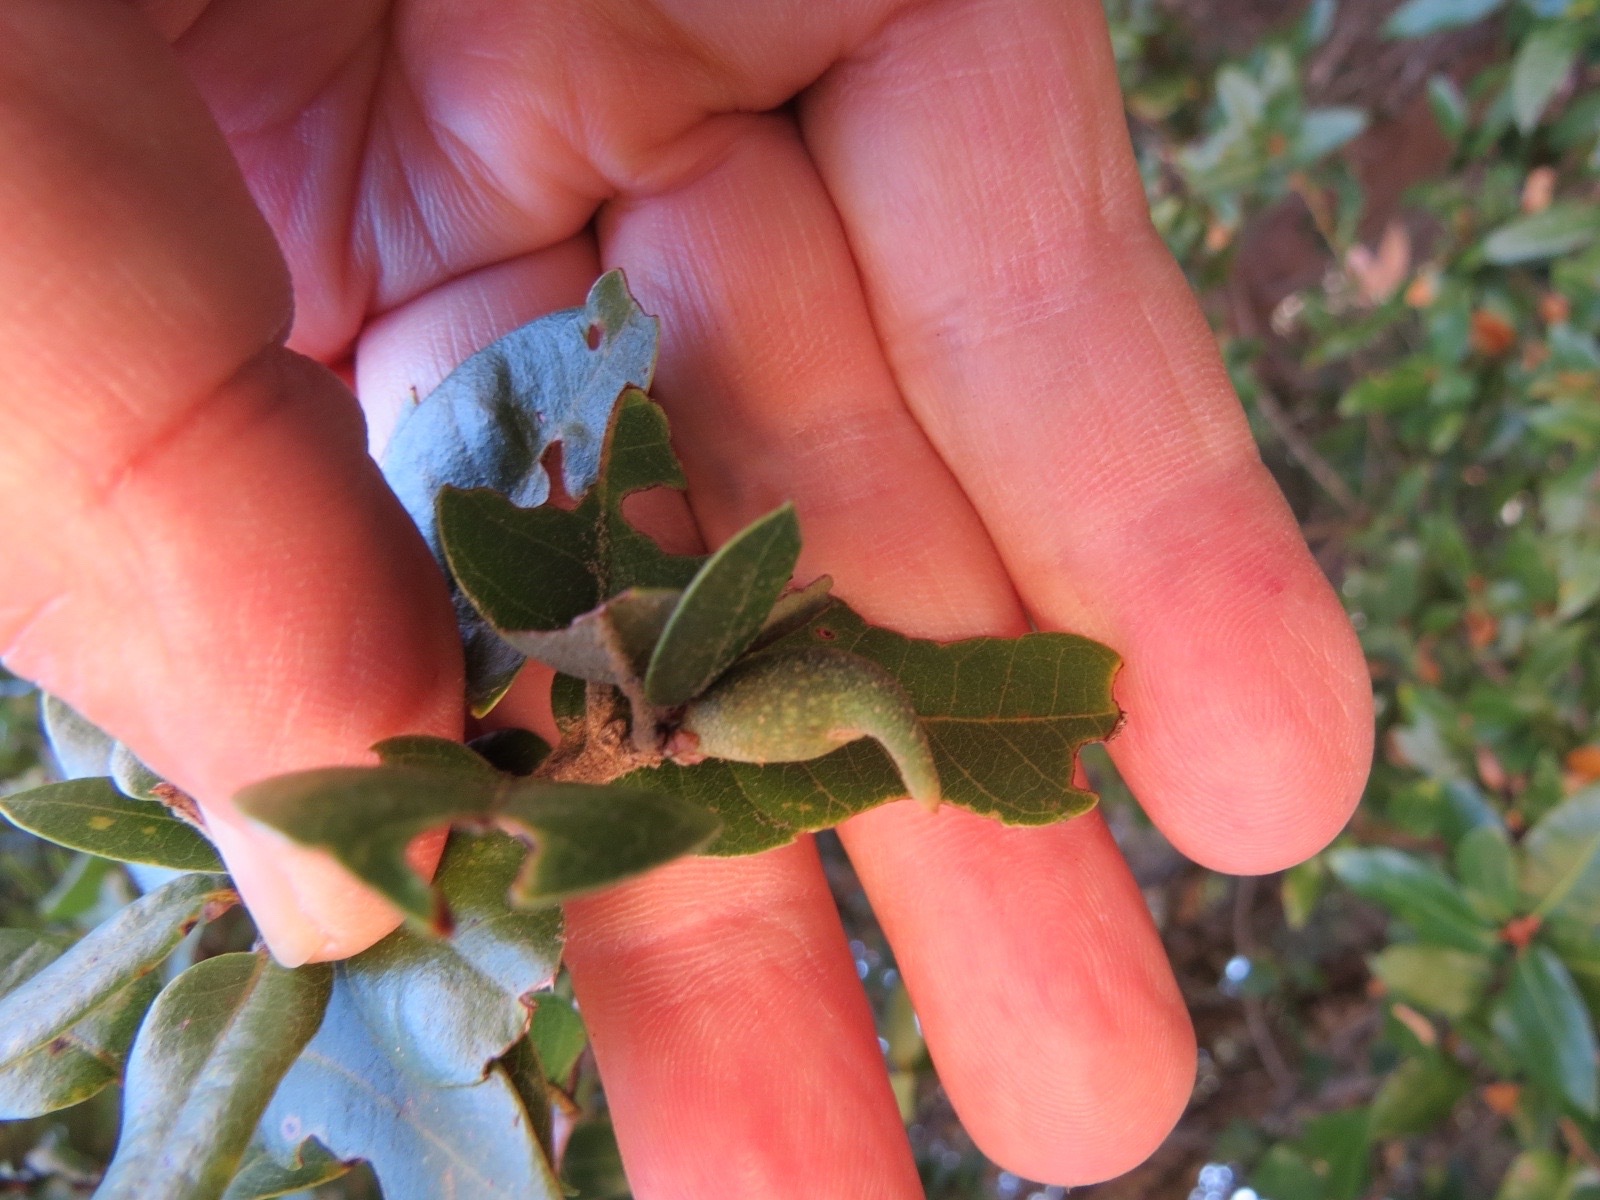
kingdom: Animalia
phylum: Arthropoda
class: Insecta
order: Hymenoptera
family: Cynipidae
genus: Heteroecus
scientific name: Heteroecus pacificus
